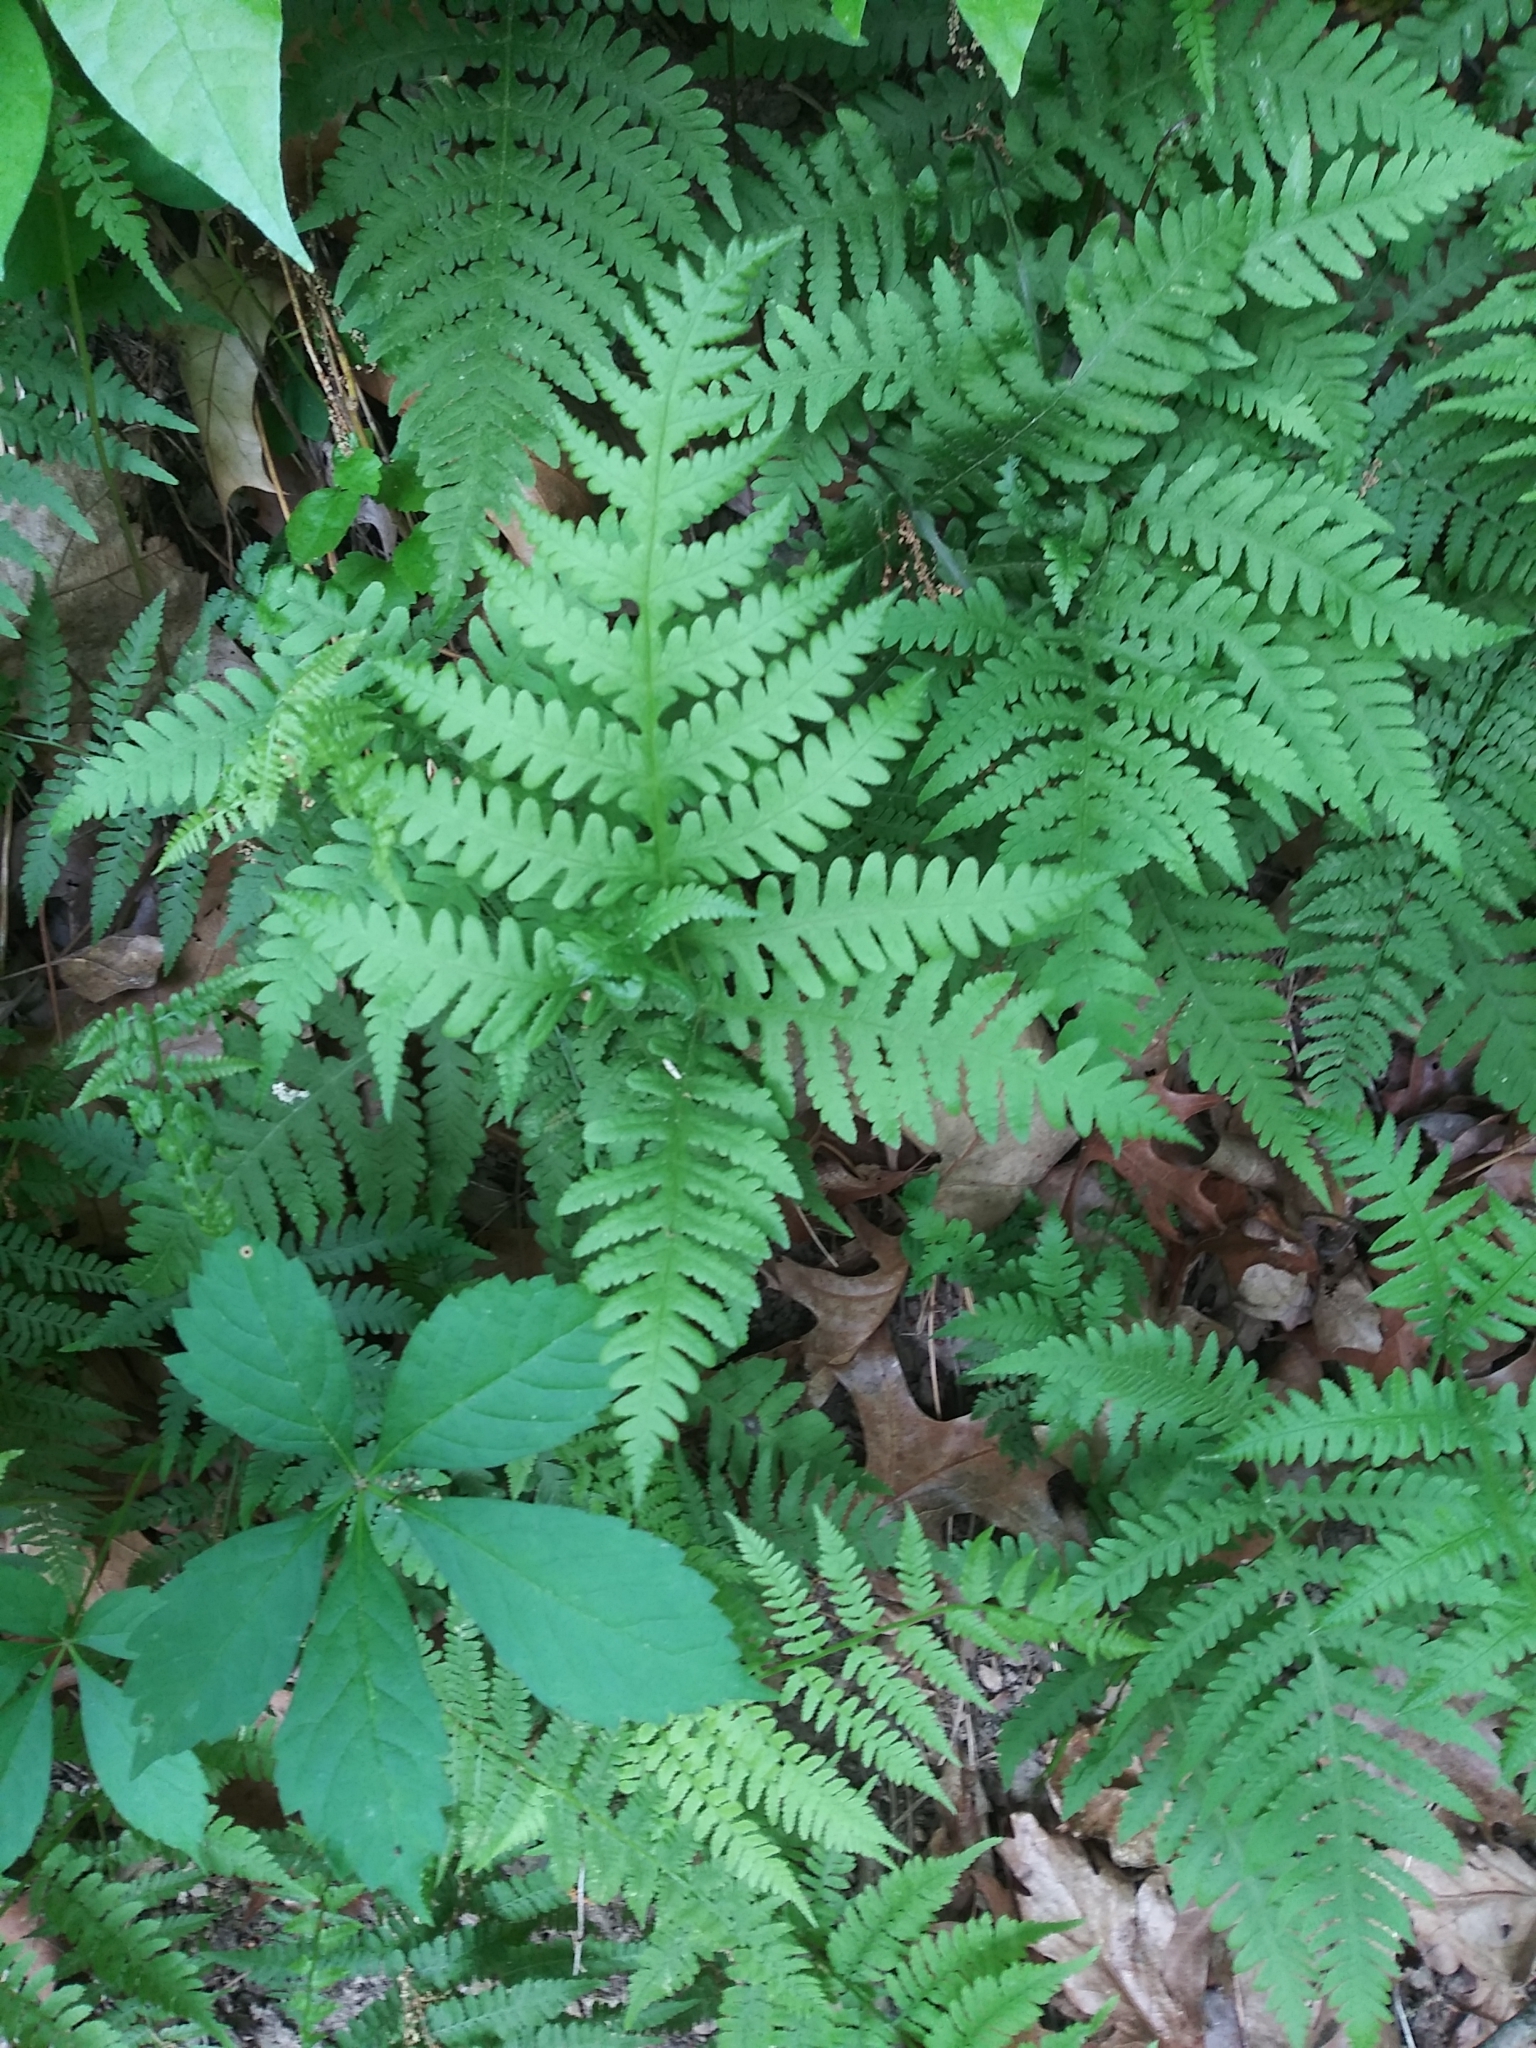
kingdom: Plantae
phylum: Tracheophyta
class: Polypodiopsida
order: Polypodiales
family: Thelypteridaceae
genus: Phegopteris
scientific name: Phegopteris hexagonoptera
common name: Broad beech fern
